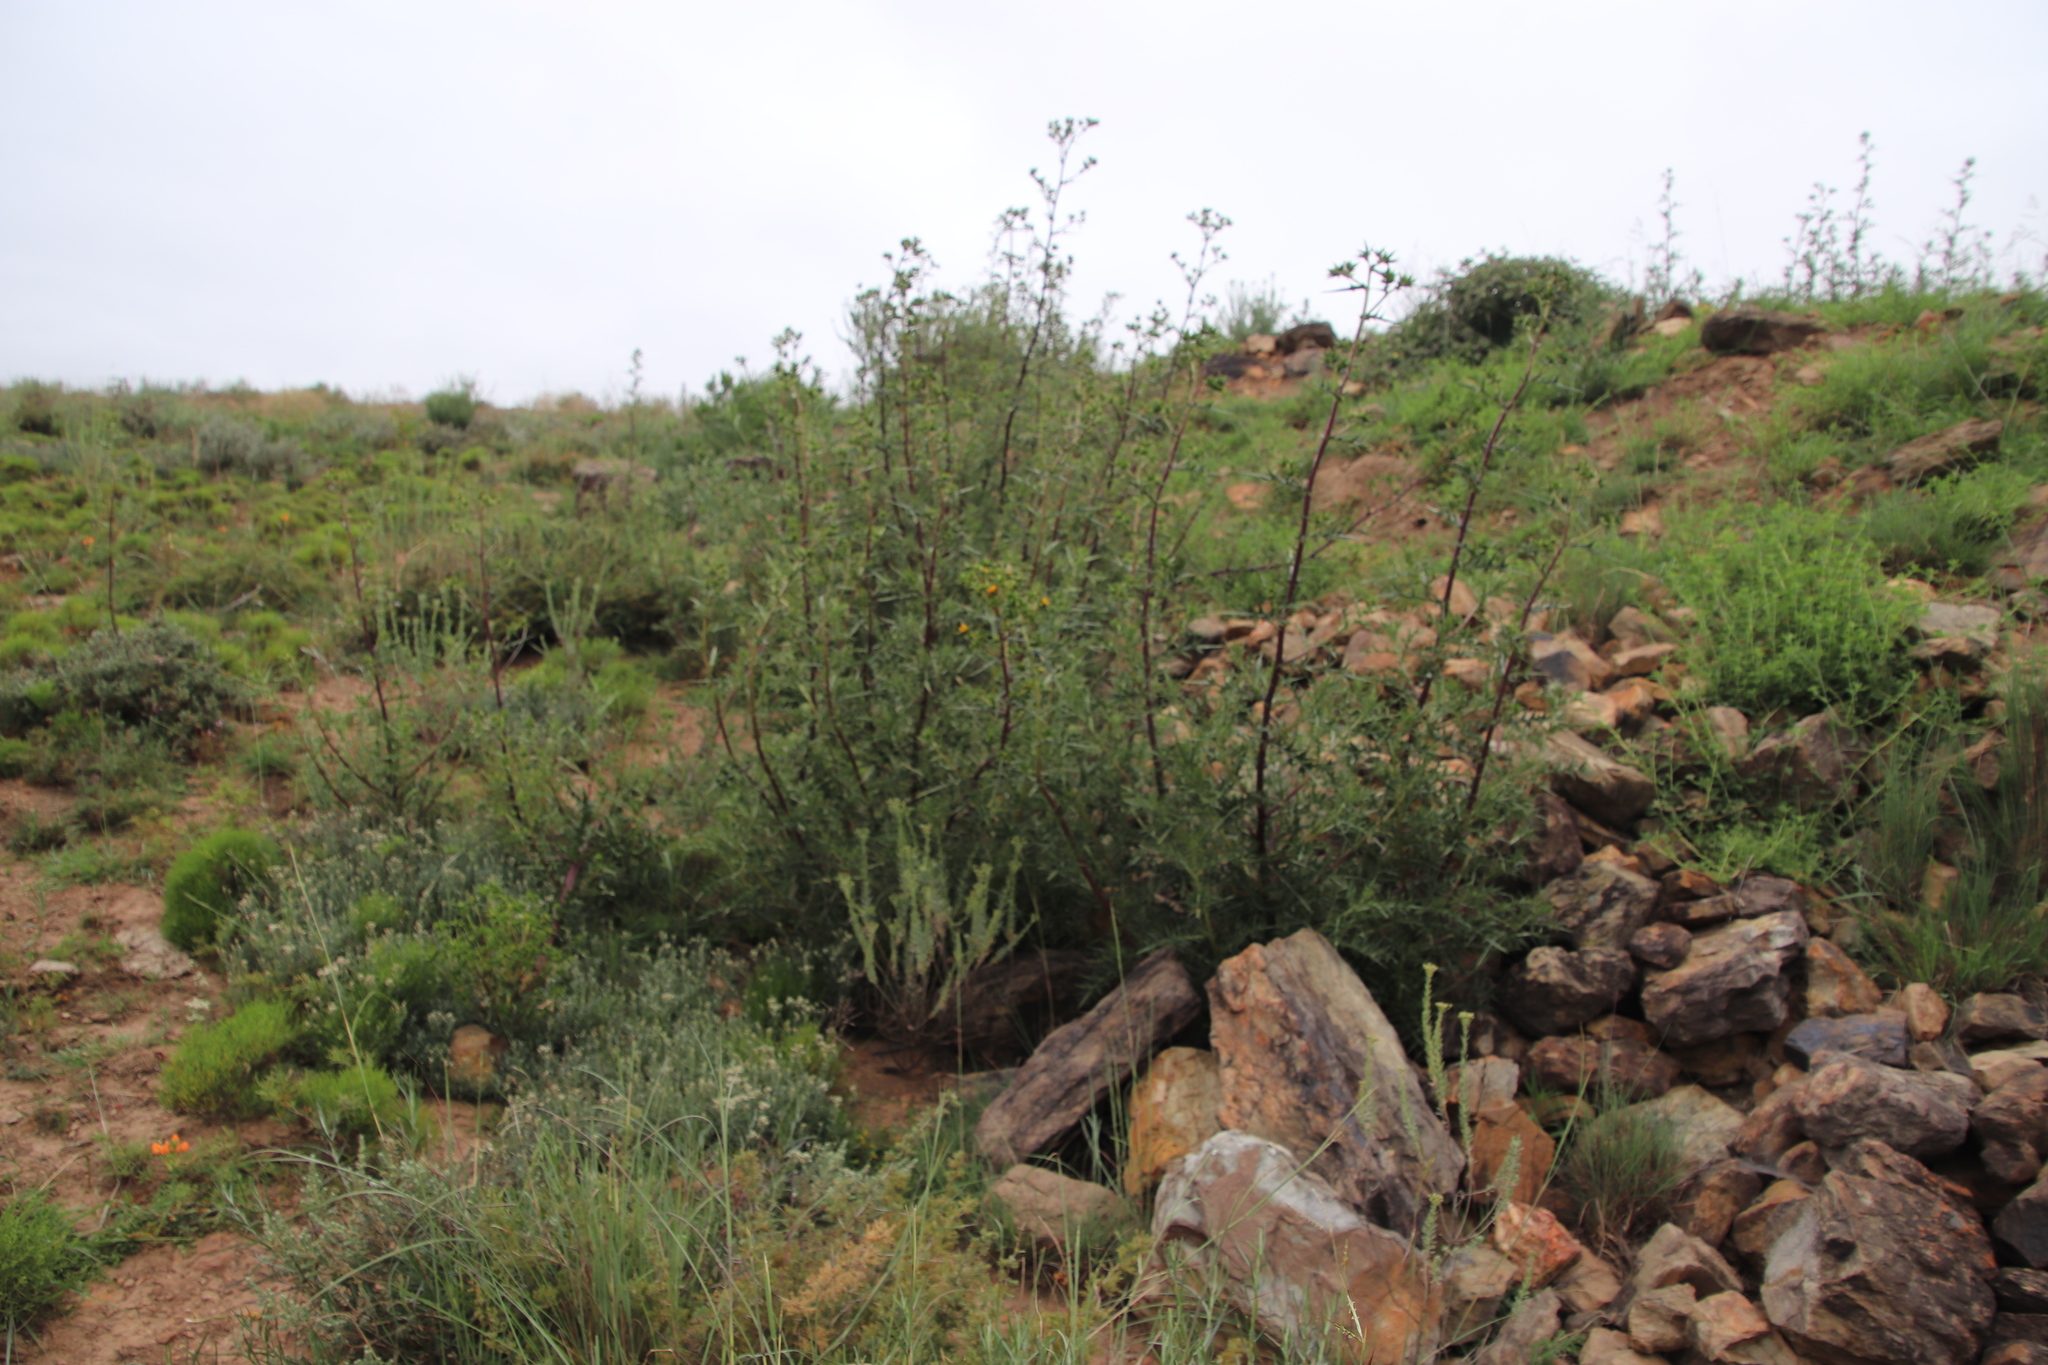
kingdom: Plantae
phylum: Tracheophyta
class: Magnoliopsida
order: Asterales
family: Asteraceae
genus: Berkheya
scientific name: Berkheya rigida
